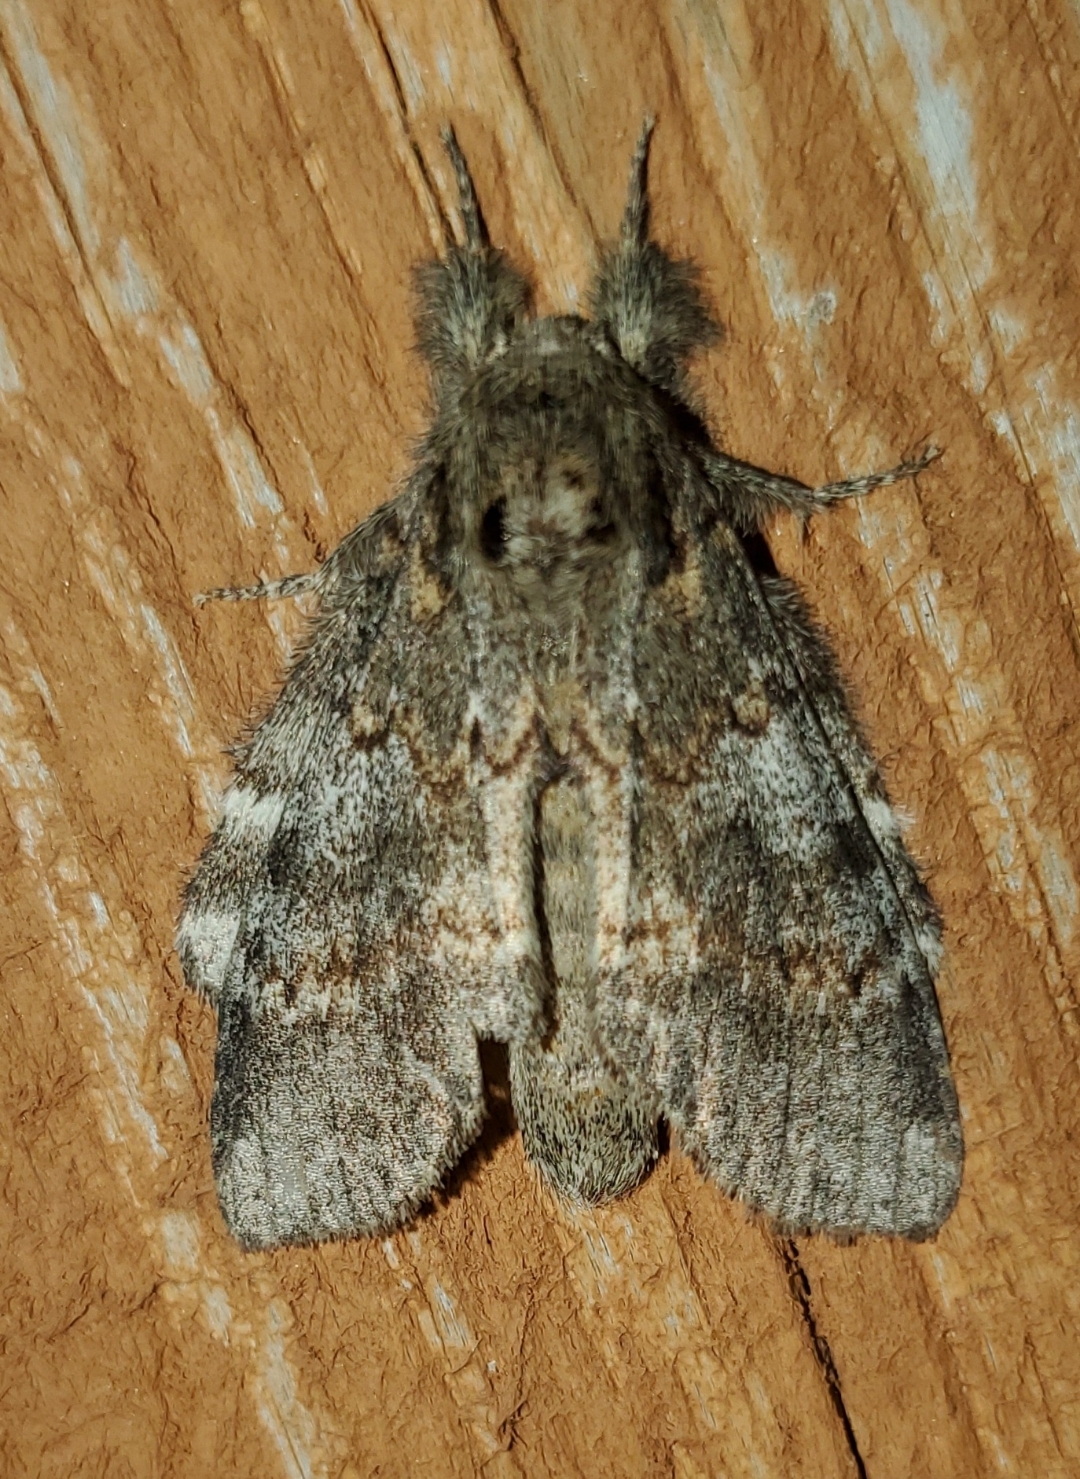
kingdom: Animalia
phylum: Arthropoda
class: Insecta
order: Lepidoptera
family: Notodontidae
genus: Peridea
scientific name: Peridea angulosa
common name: Angulose prominent
